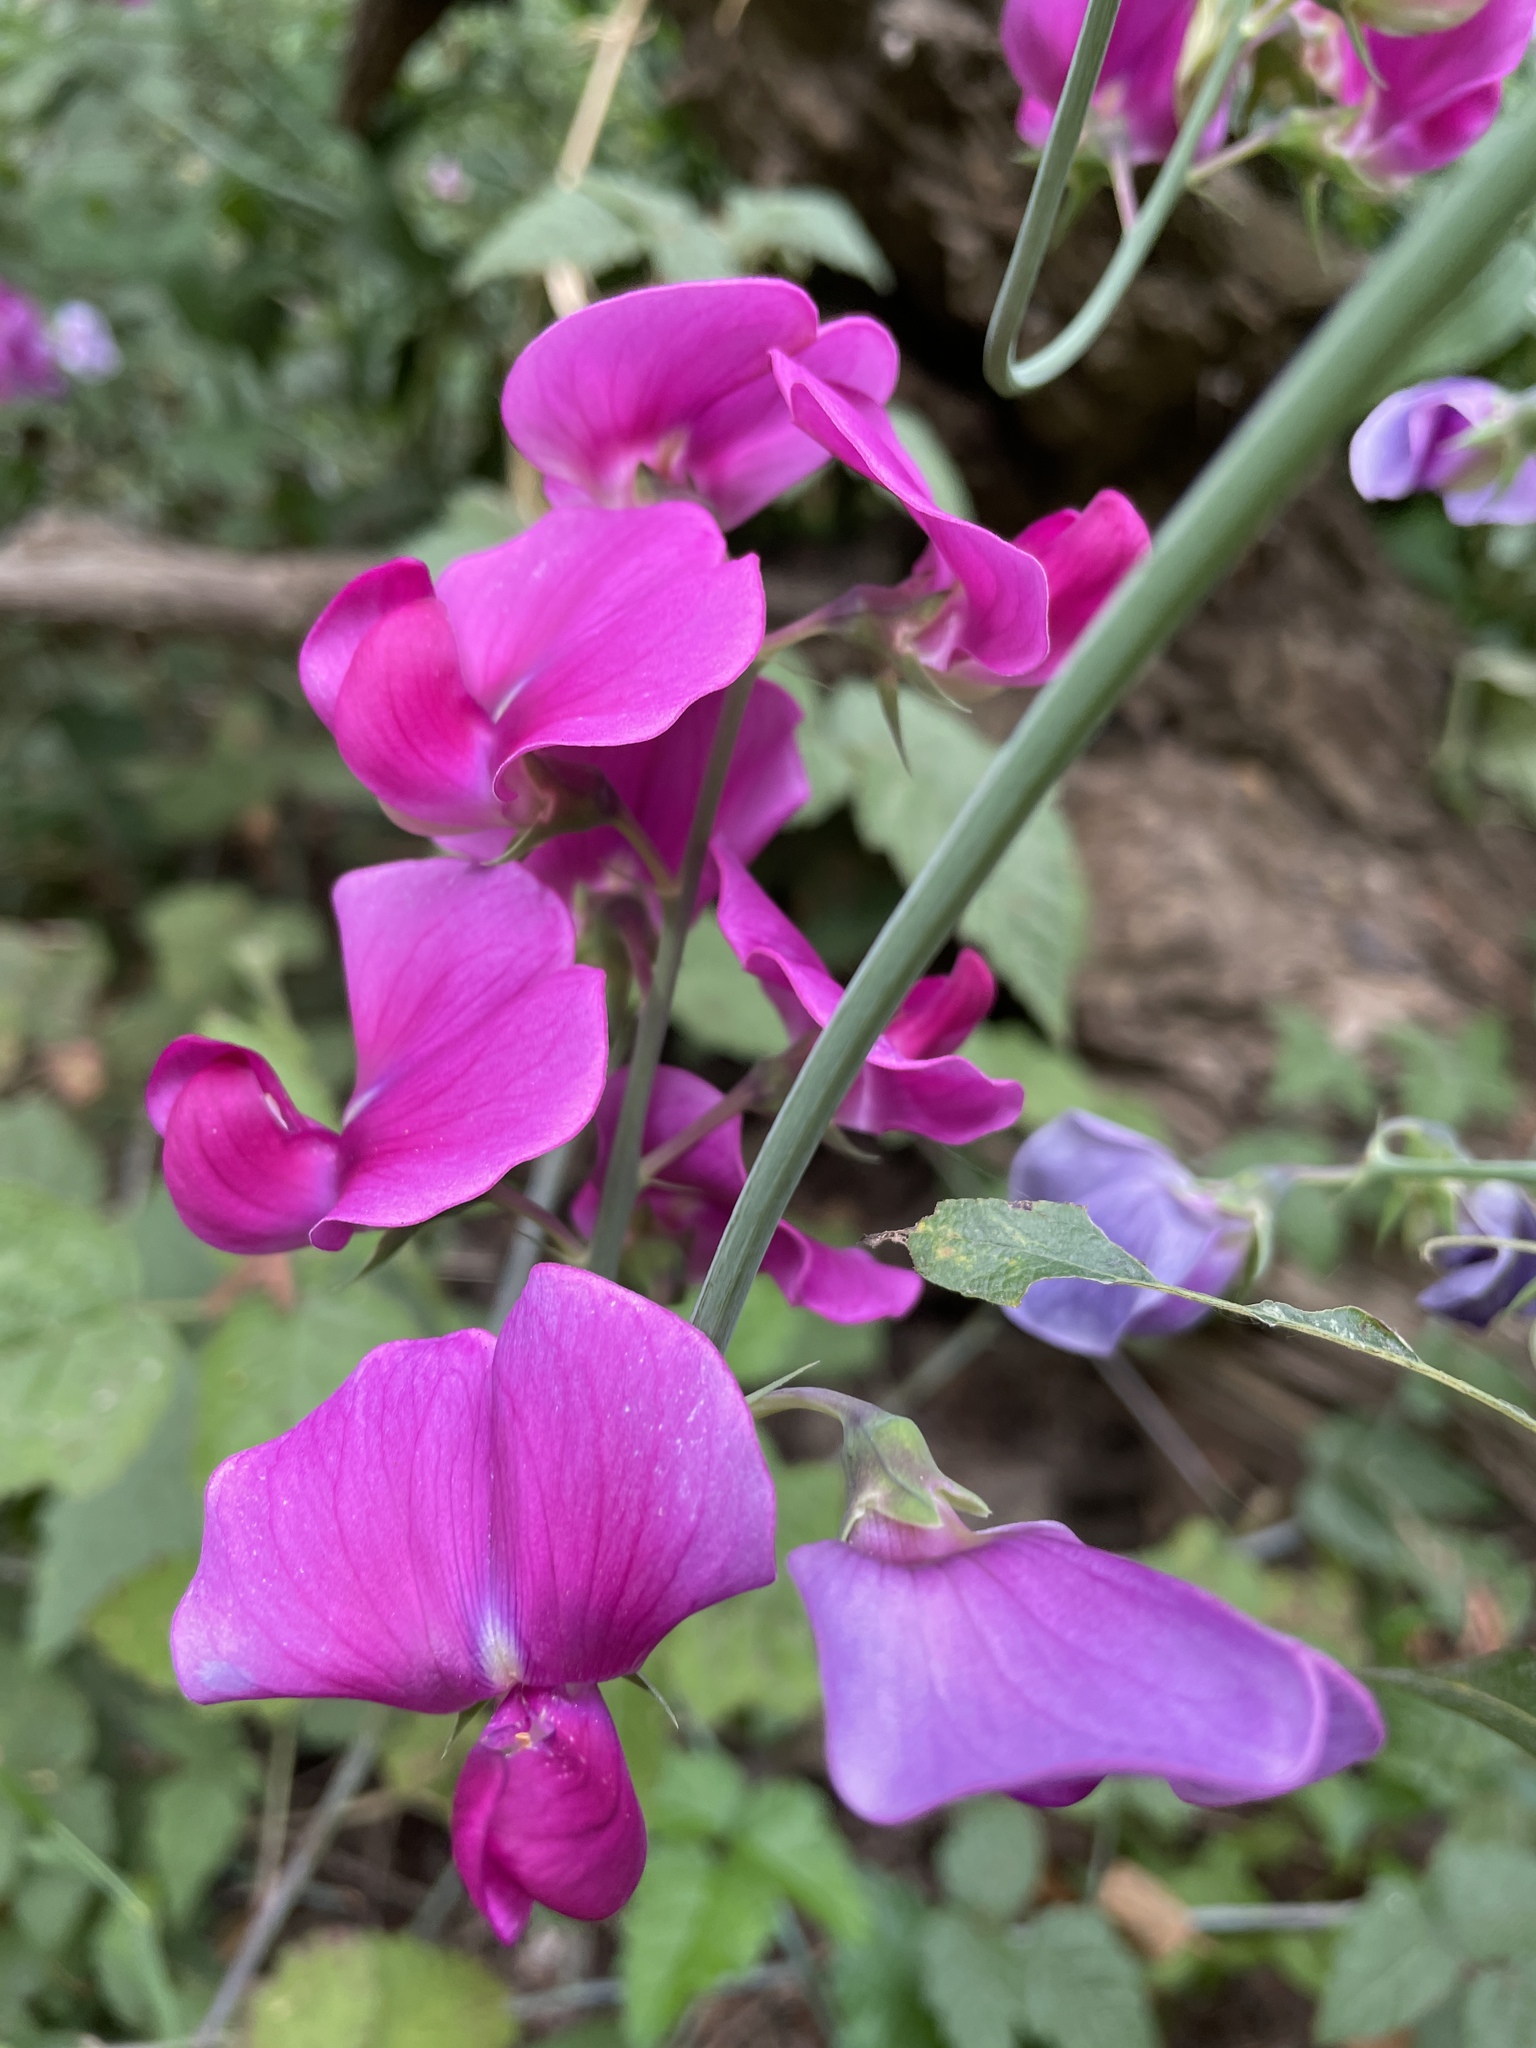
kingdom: Plantae
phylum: Tracheophyta
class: Magnoliopsida
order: Fabales
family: Fabaceae
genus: Lathyrus
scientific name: Lathyrus latifolius
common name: Perennial pea
